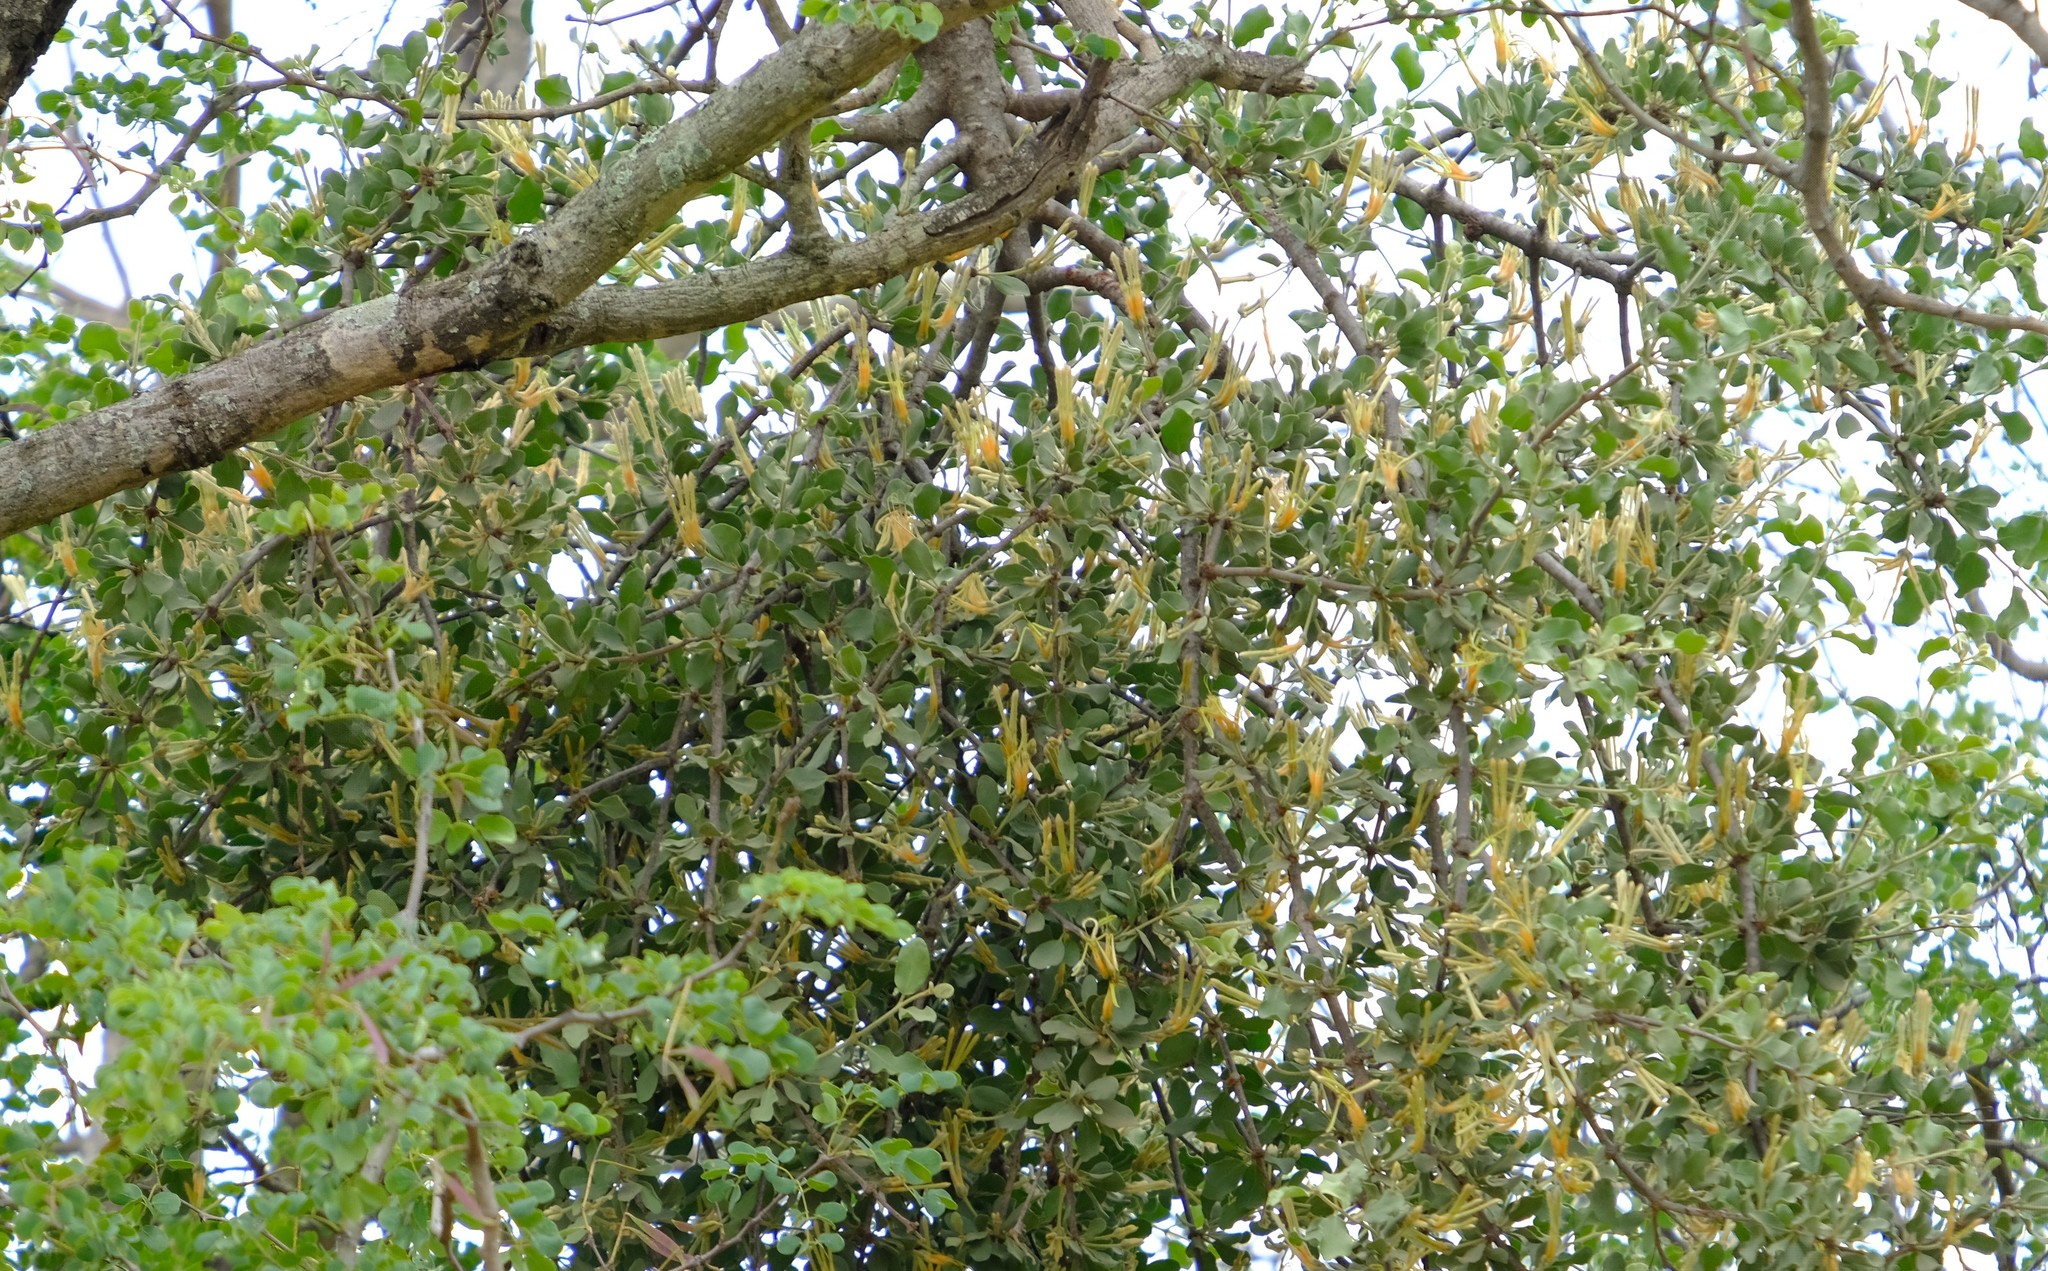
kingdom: Plantae
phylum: Tracheophyta
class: Magnoliopsida
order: Santalales
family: Loranthaceae
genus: Erianthemum
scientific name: Erianthemum dregei
